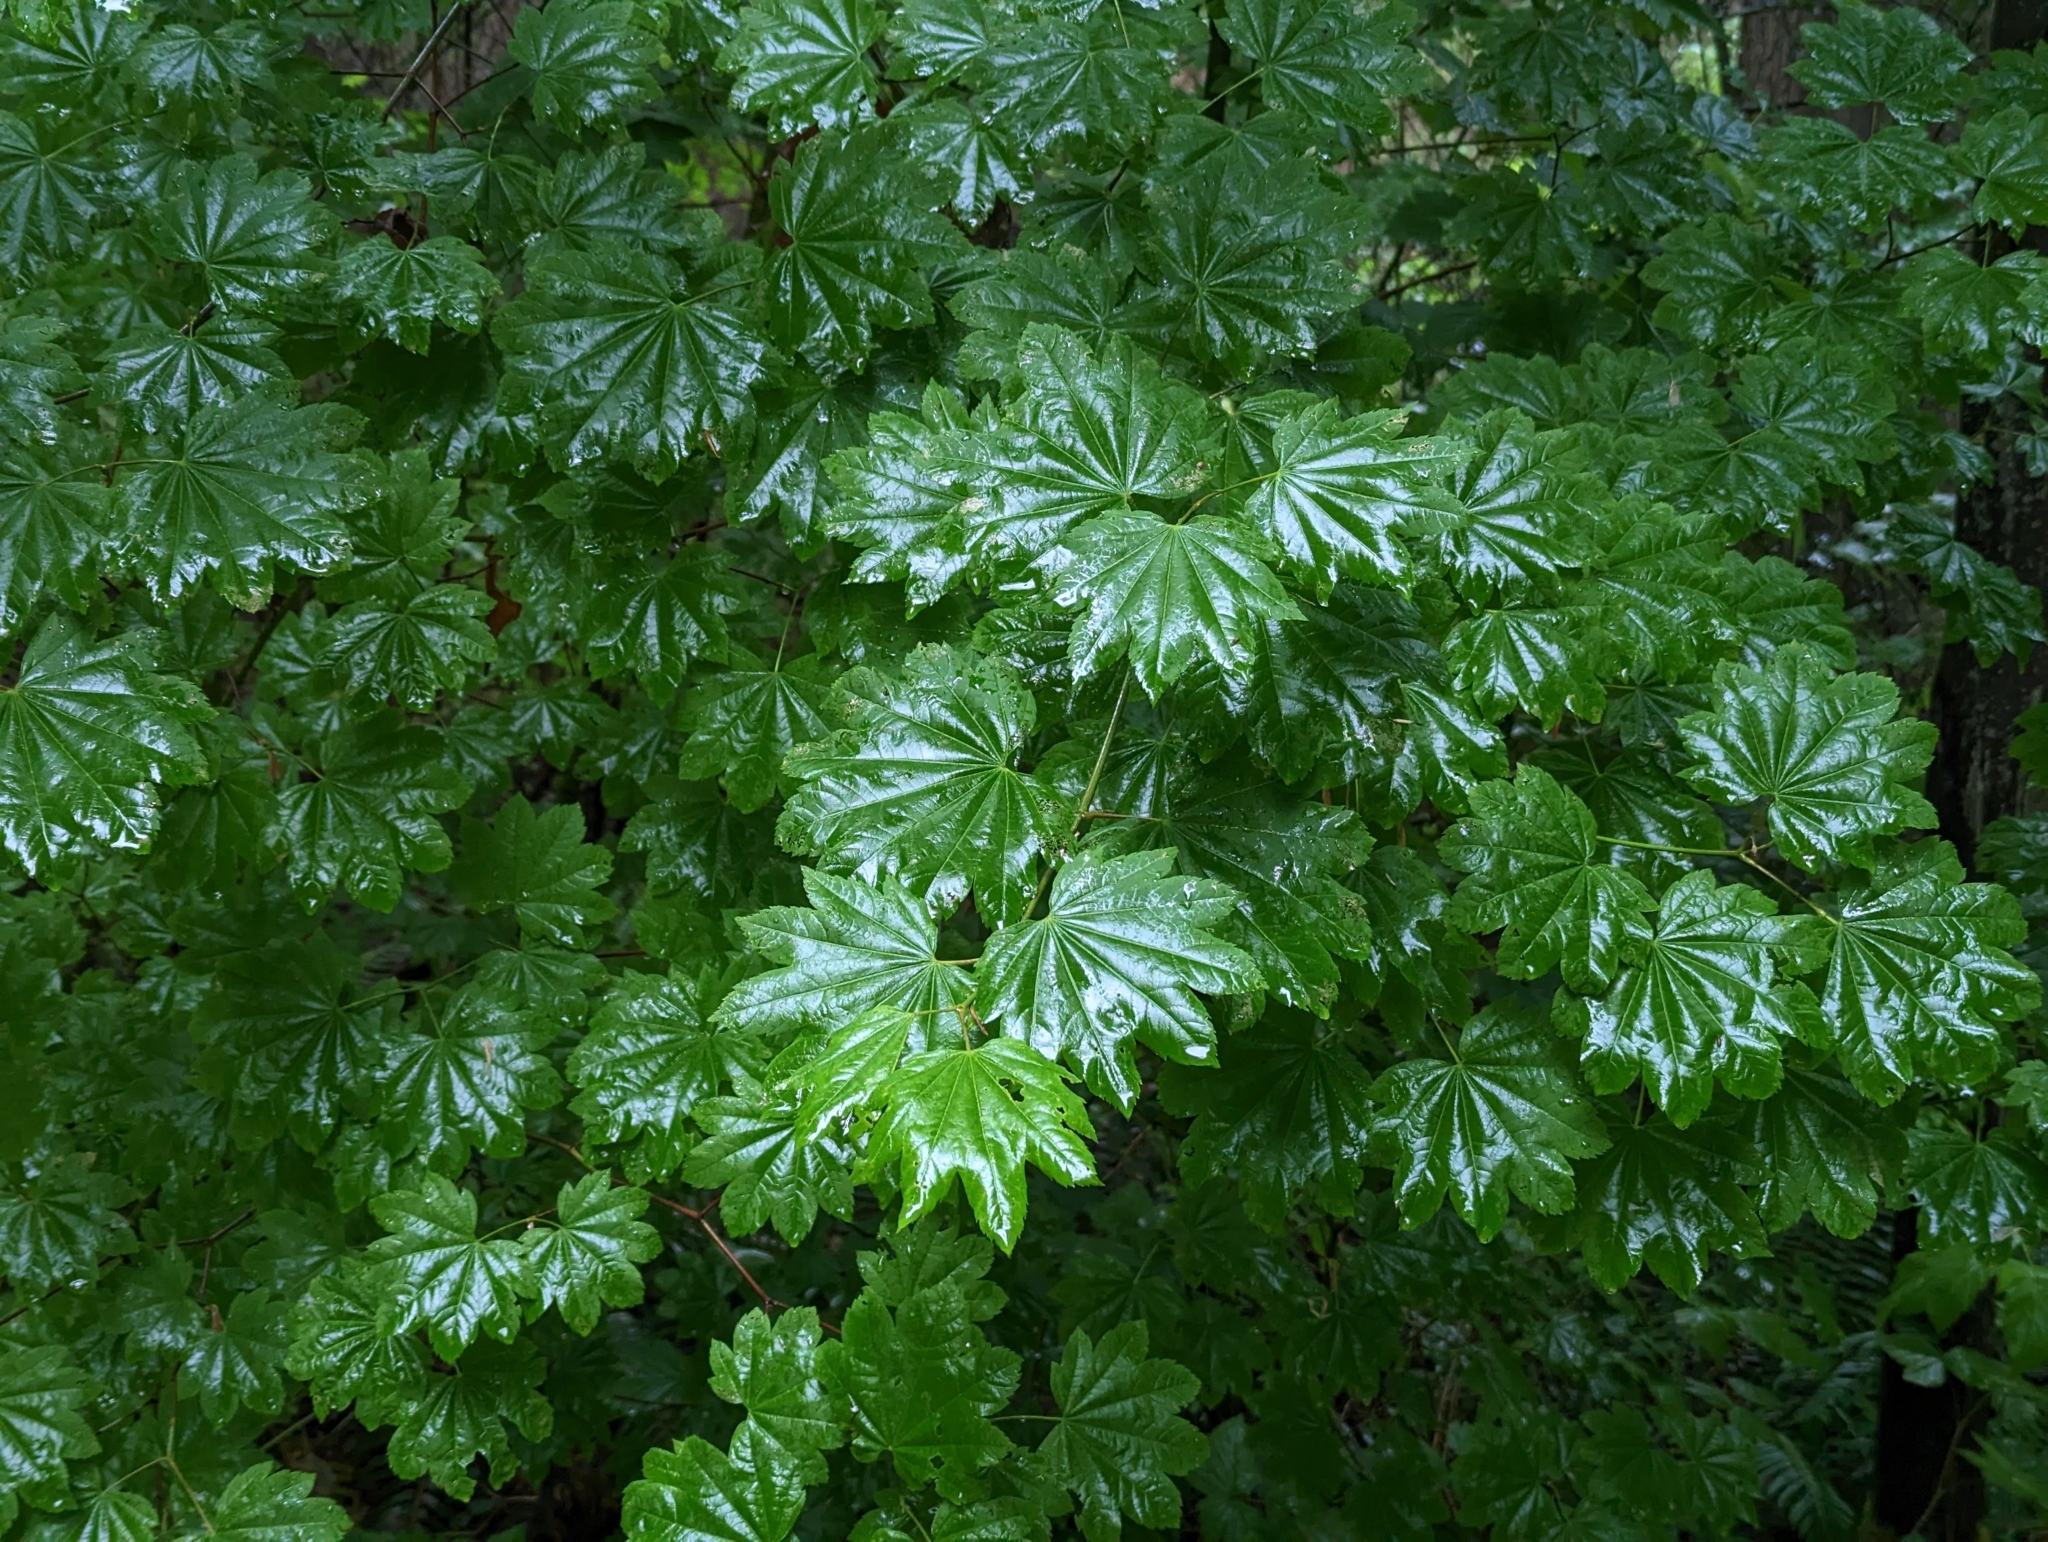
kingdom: Plantae
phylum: Tracheophyta
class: Magnoliopsida
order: Sapindales
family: Sapindaceae
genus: Acer
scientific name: Acer circinatum
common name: Vine maple
